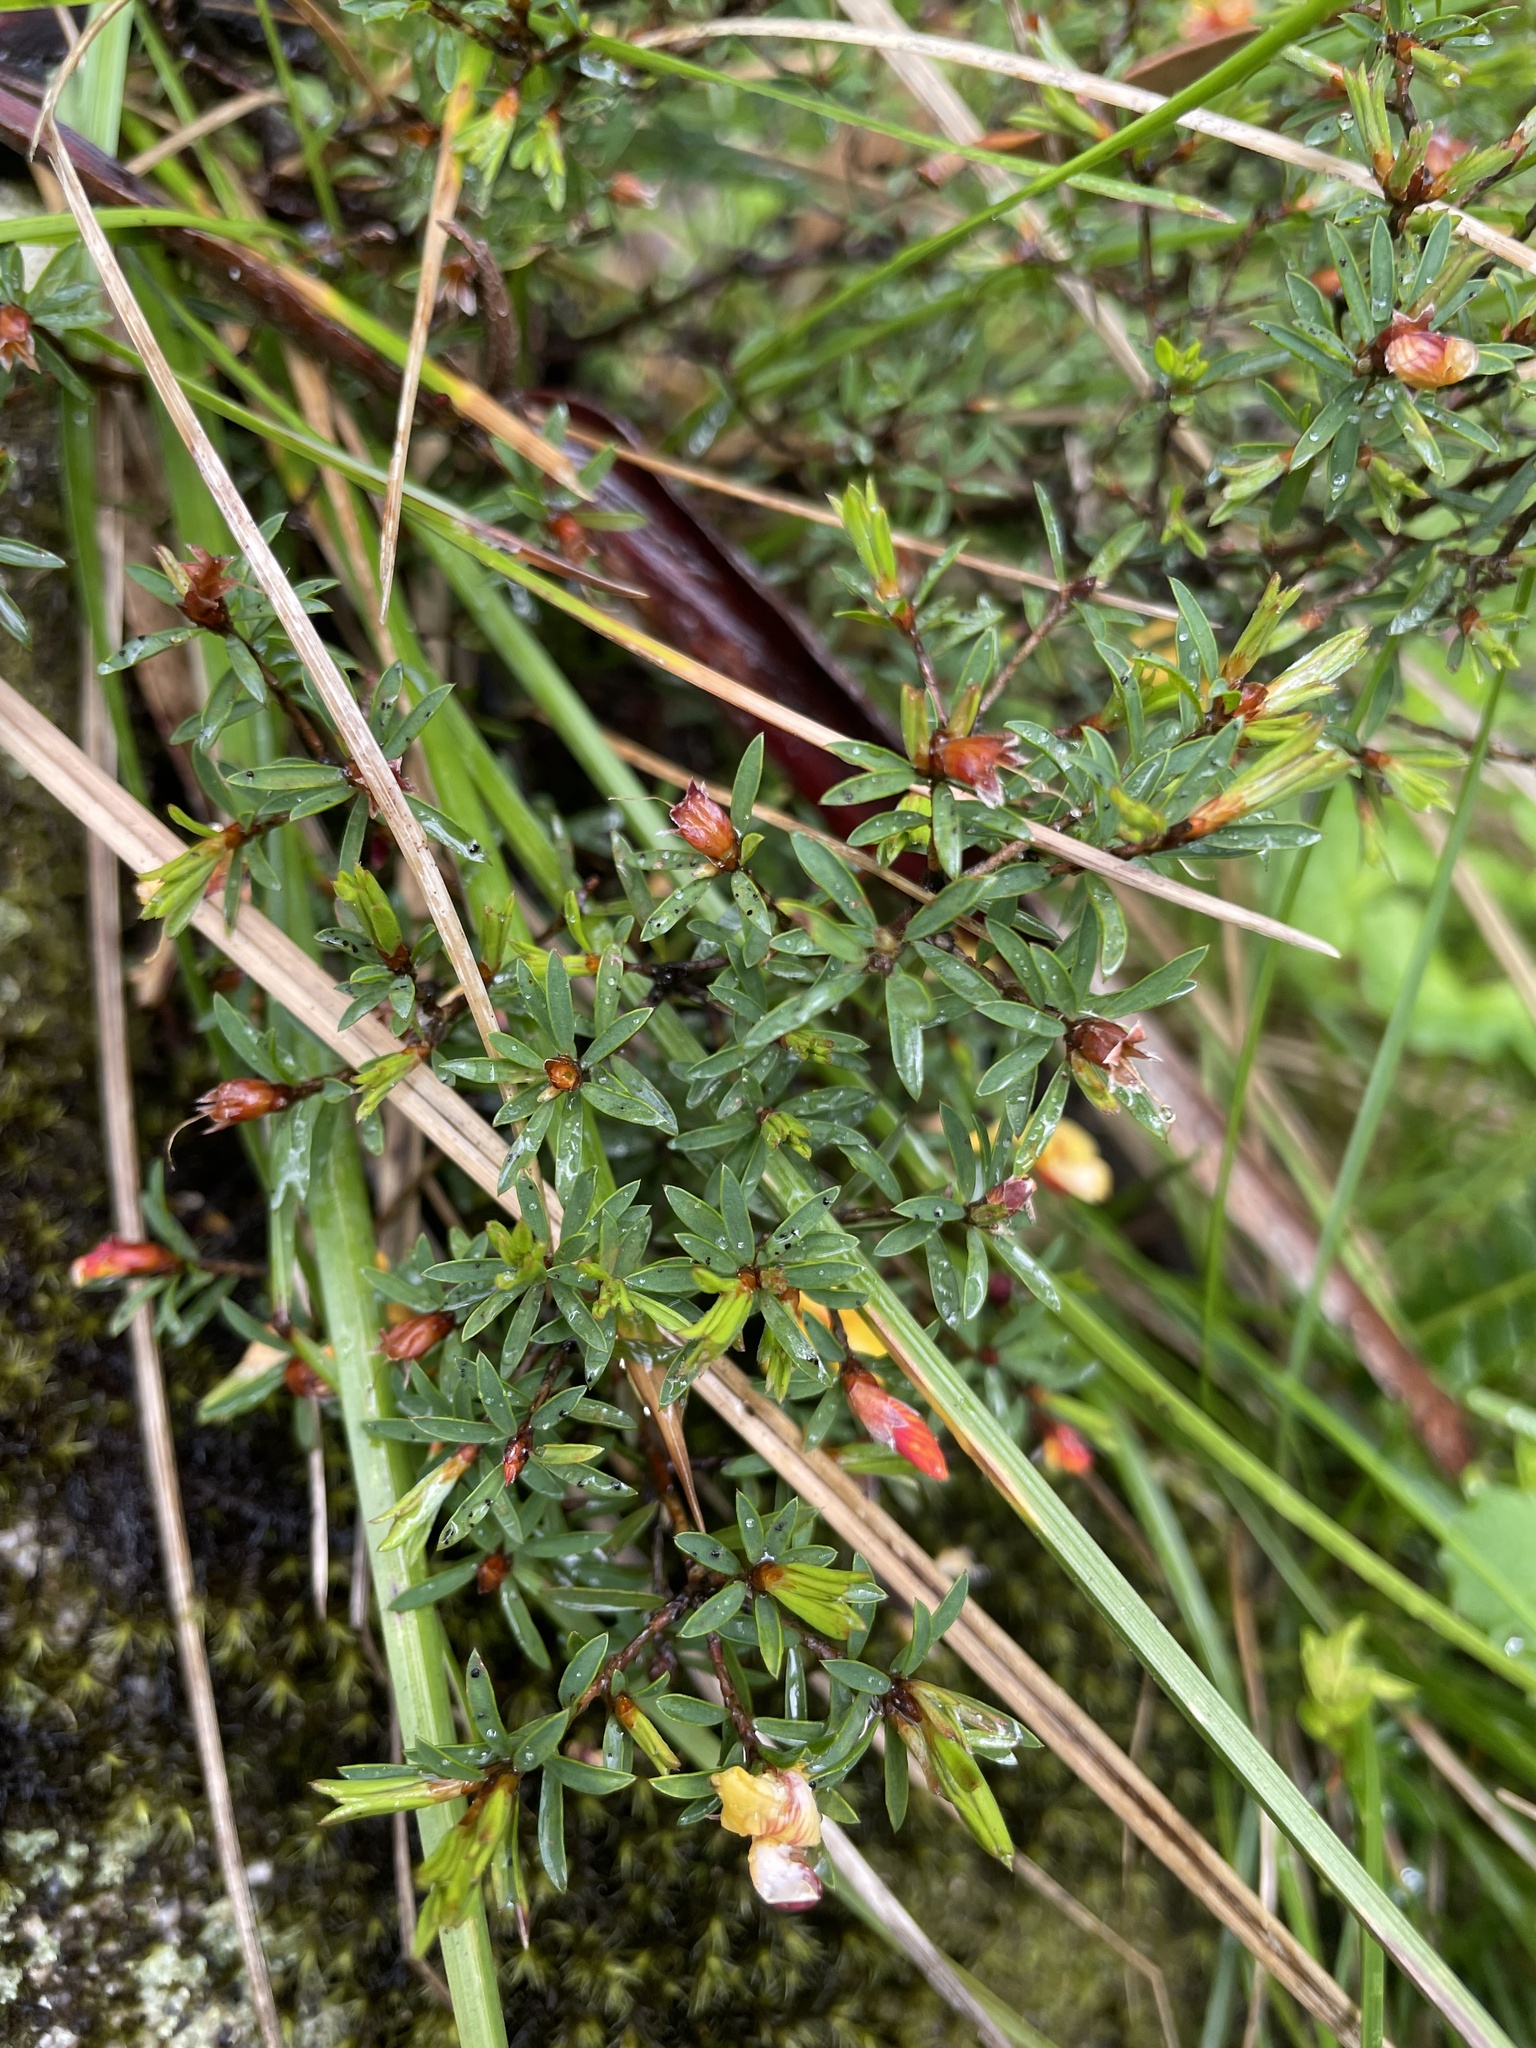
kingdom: Plantae
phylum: Tracheophyta
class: Magnoliopsida
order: Fabales
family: Fabaceae
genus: Pultenaea
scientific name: Pultenaea muelleri
